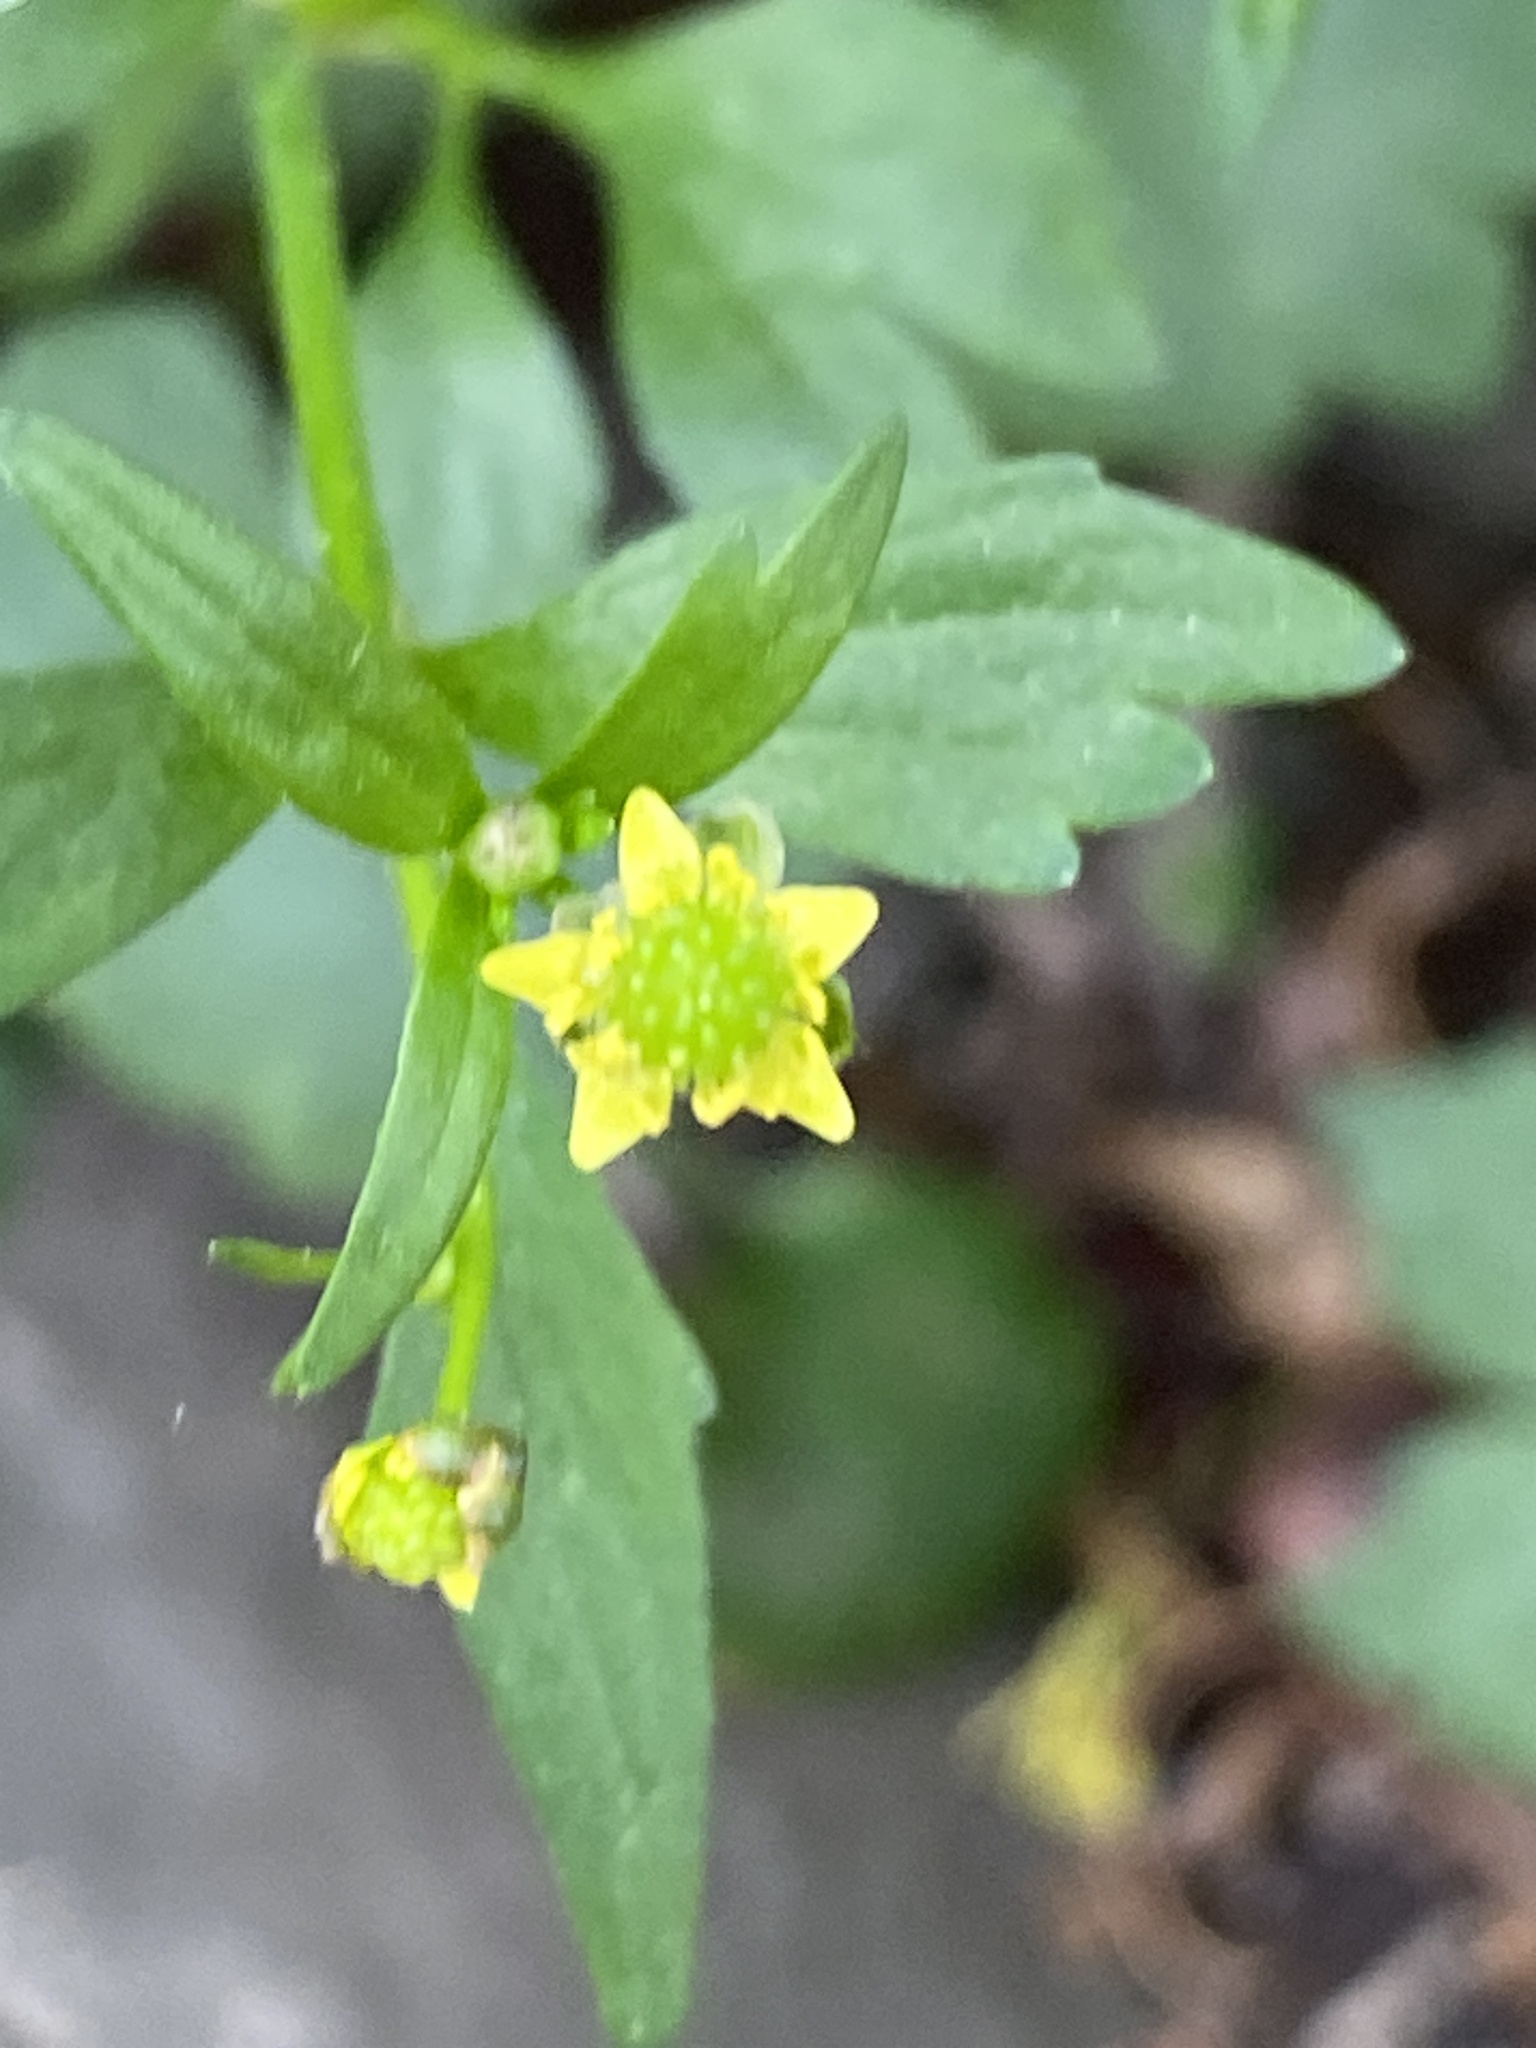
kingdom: Plantae
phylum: Tracheophyta
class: Magnoliopsida
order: Ranunculales
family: Ranunculaceae
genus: Ranunculus
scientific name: Ranunculus abortivus
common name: Early wood buttercup
